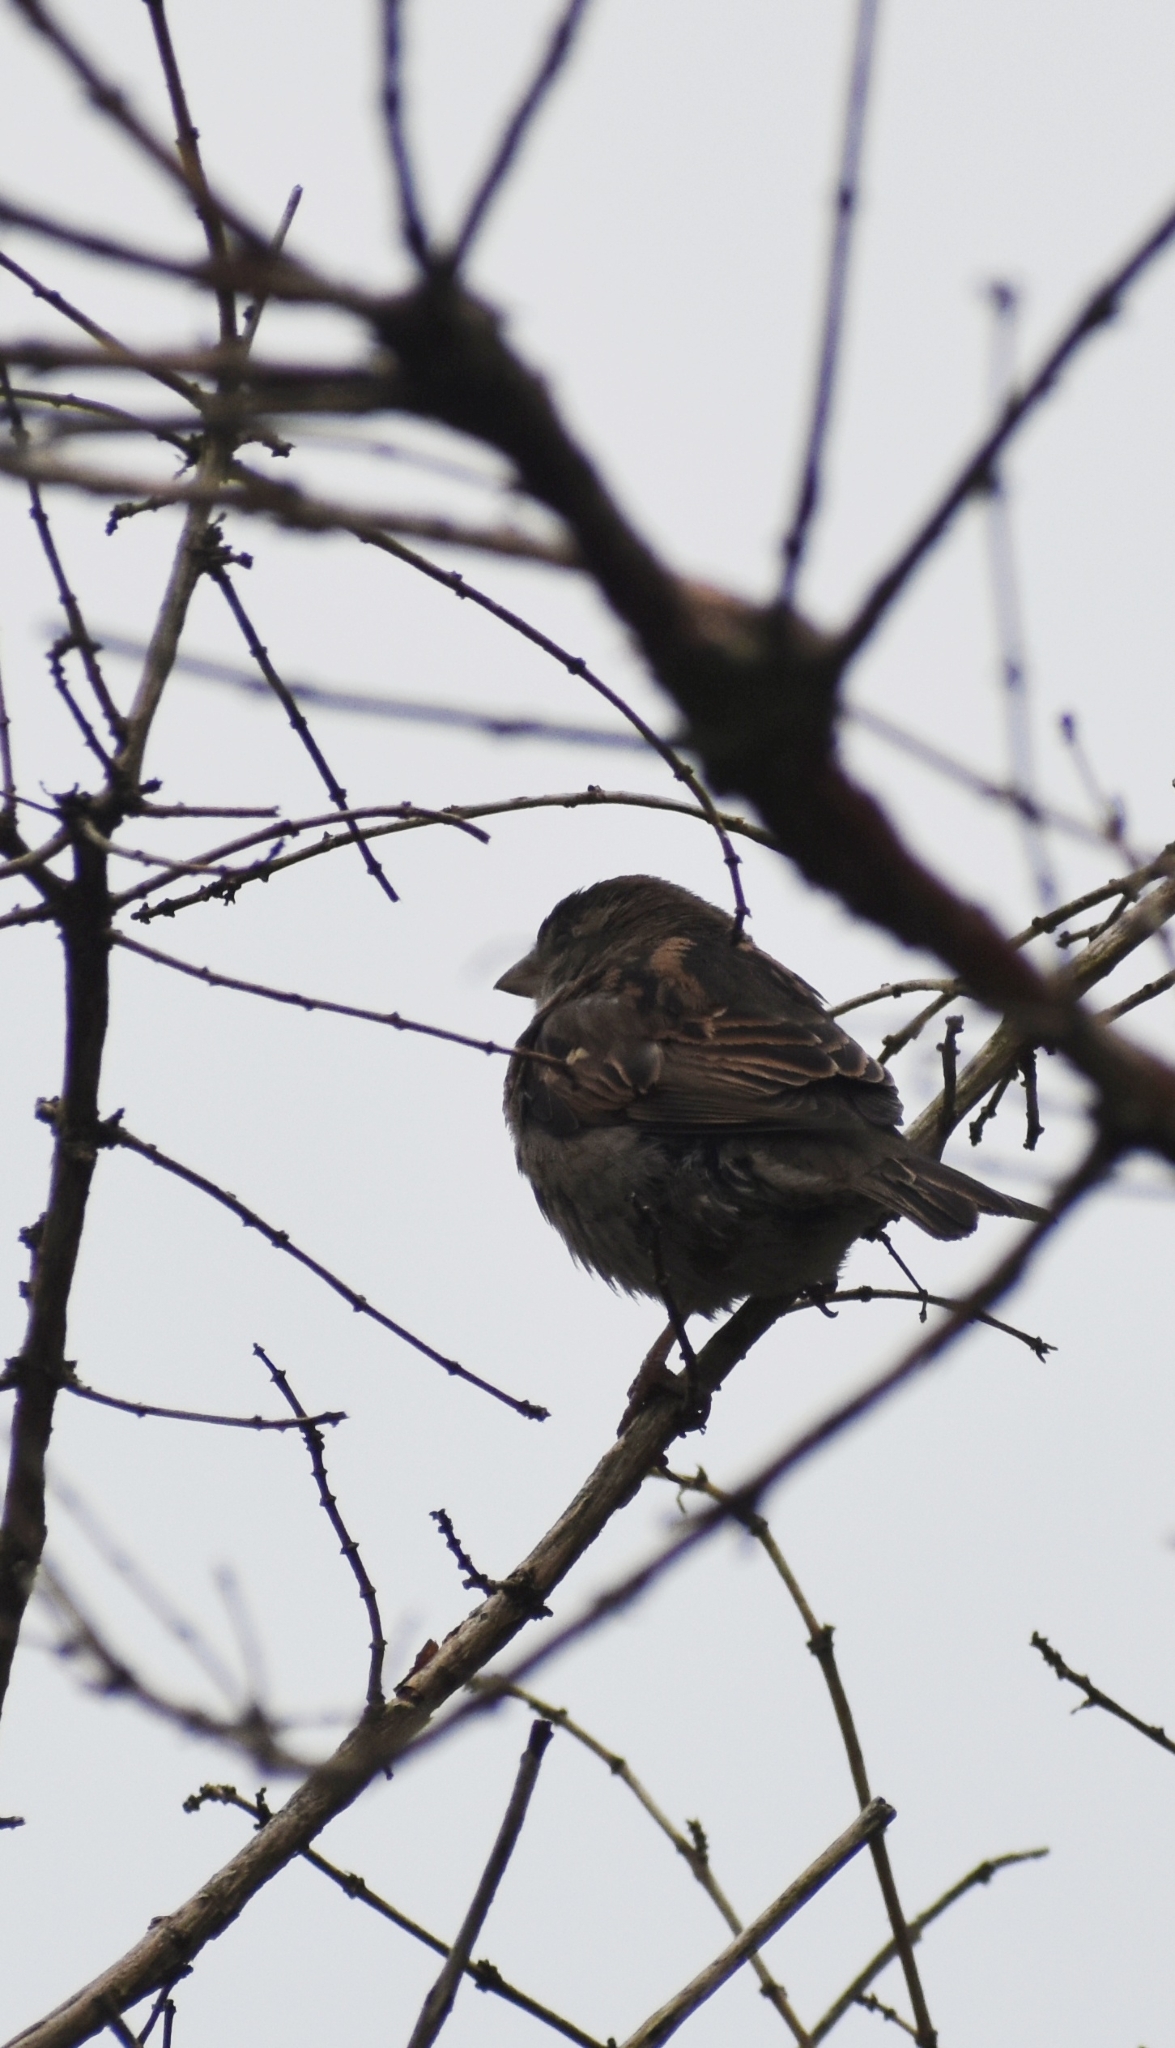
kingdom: Animalia
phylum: Chordata
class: Aves
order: Passeriformes
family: Passeridae
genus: Passer
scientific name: Passer domesticus
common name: House sparrow
